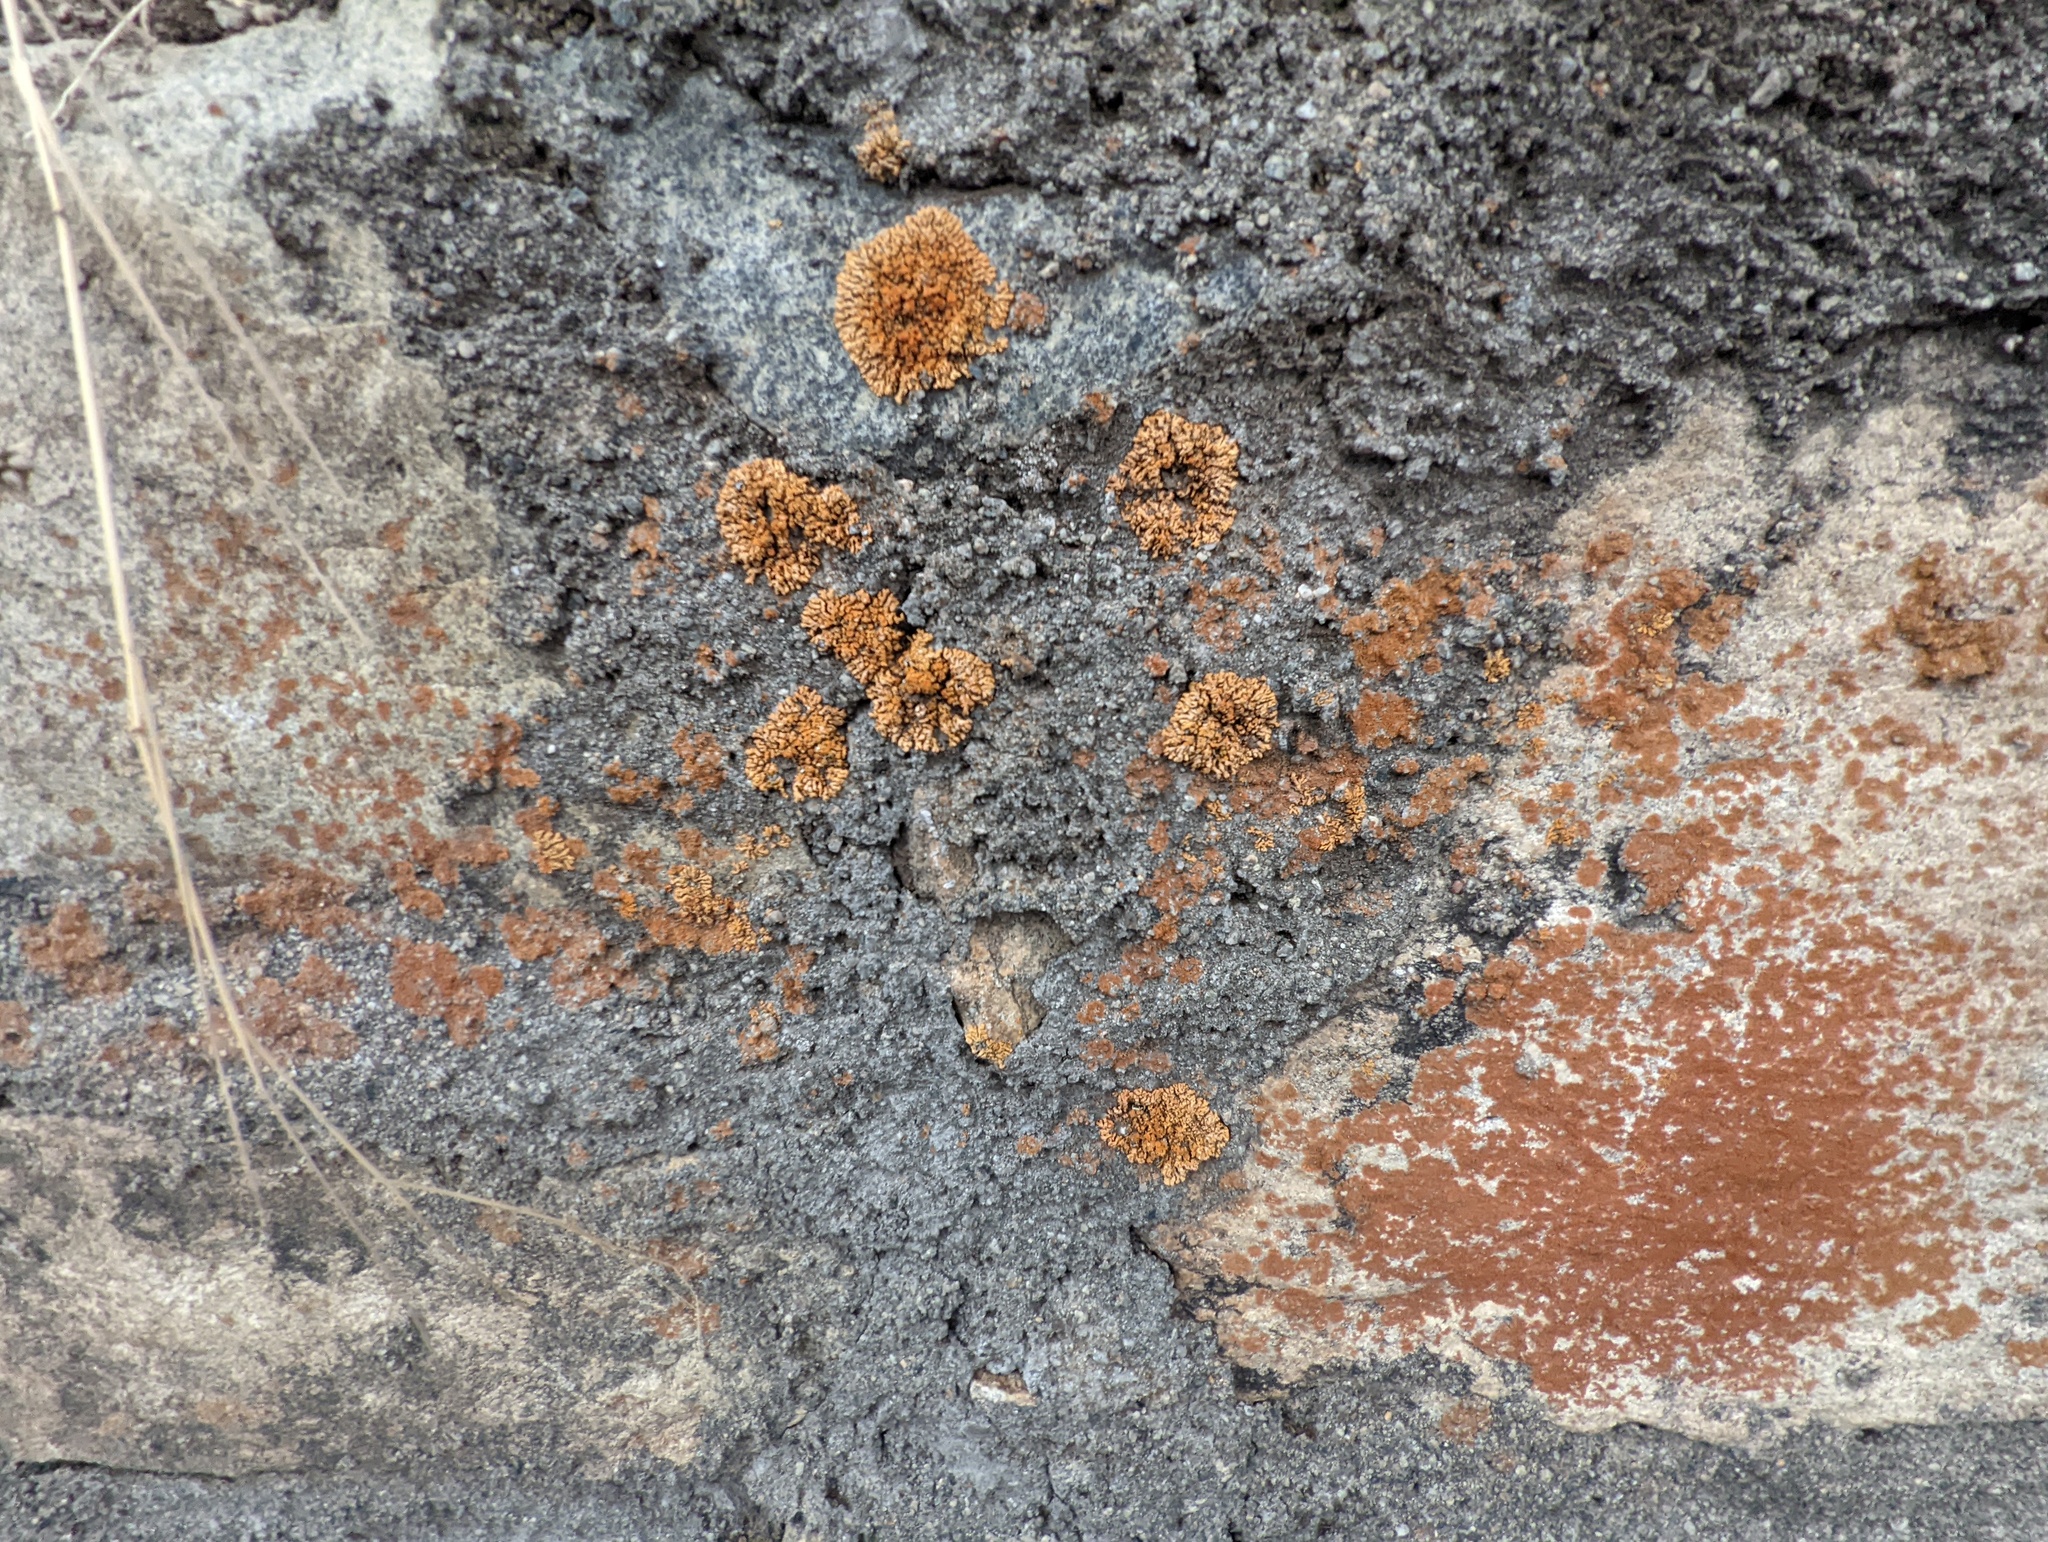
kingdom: Fungi
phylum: Ascomycota
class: Lecanoromycetes
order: Teloschistales
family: Teloschistaceae
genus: Xanthoria
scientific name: Xanthoria elegans
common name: Elegant sunburst lichen
